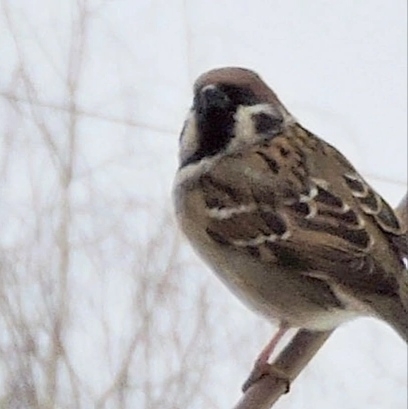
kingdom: Animalia
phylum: Chordata
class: Aves
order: Passeriformes
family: Passeridae
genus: Passer
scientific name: Passer montanus
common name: Eurasian tree sparrow
